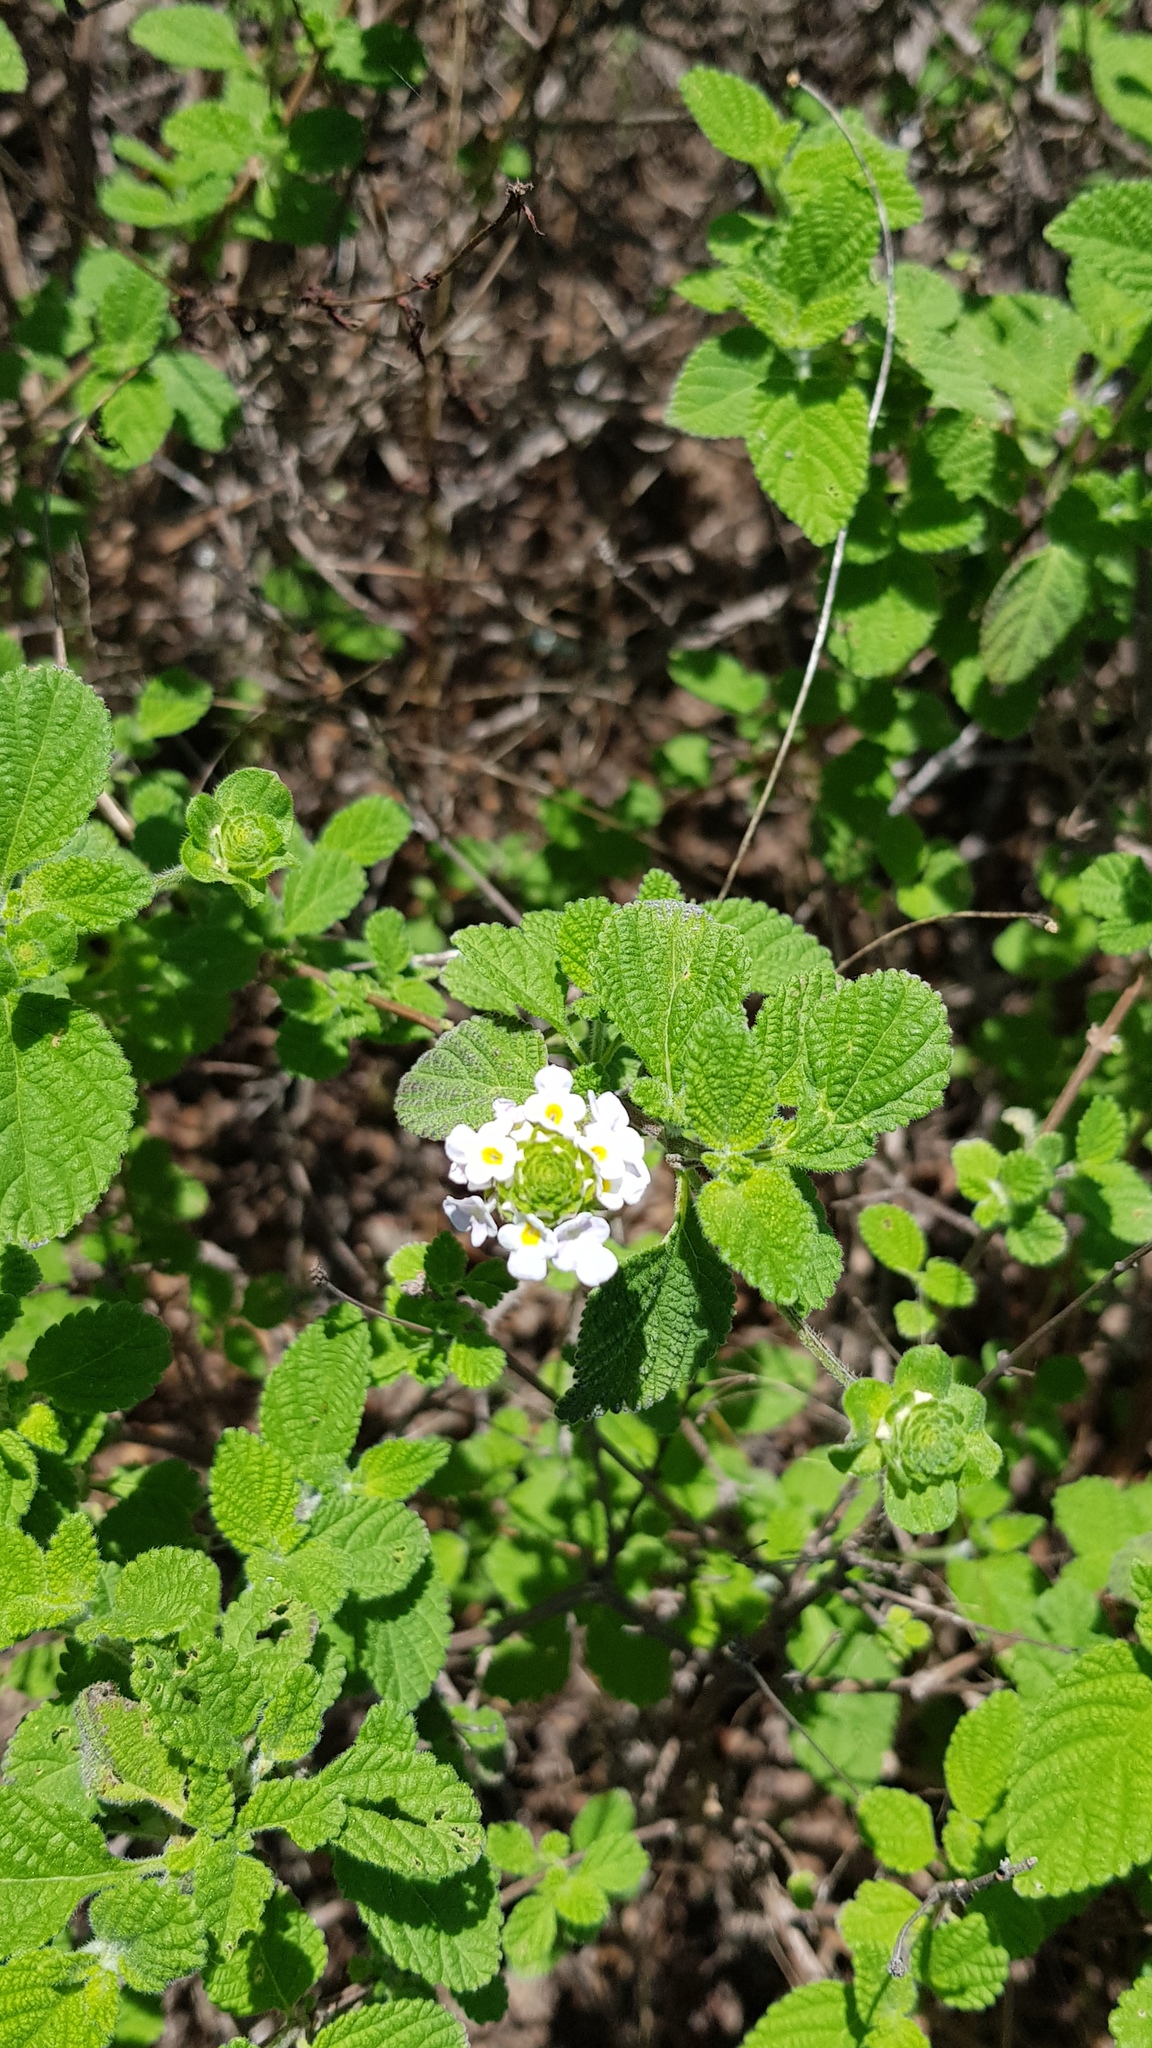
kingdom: Plantae
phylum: Tracheophyta
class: Magnoliopsida
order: Lamiales
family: Verbenaceae
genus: Lantana
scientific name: Lantana velutina
